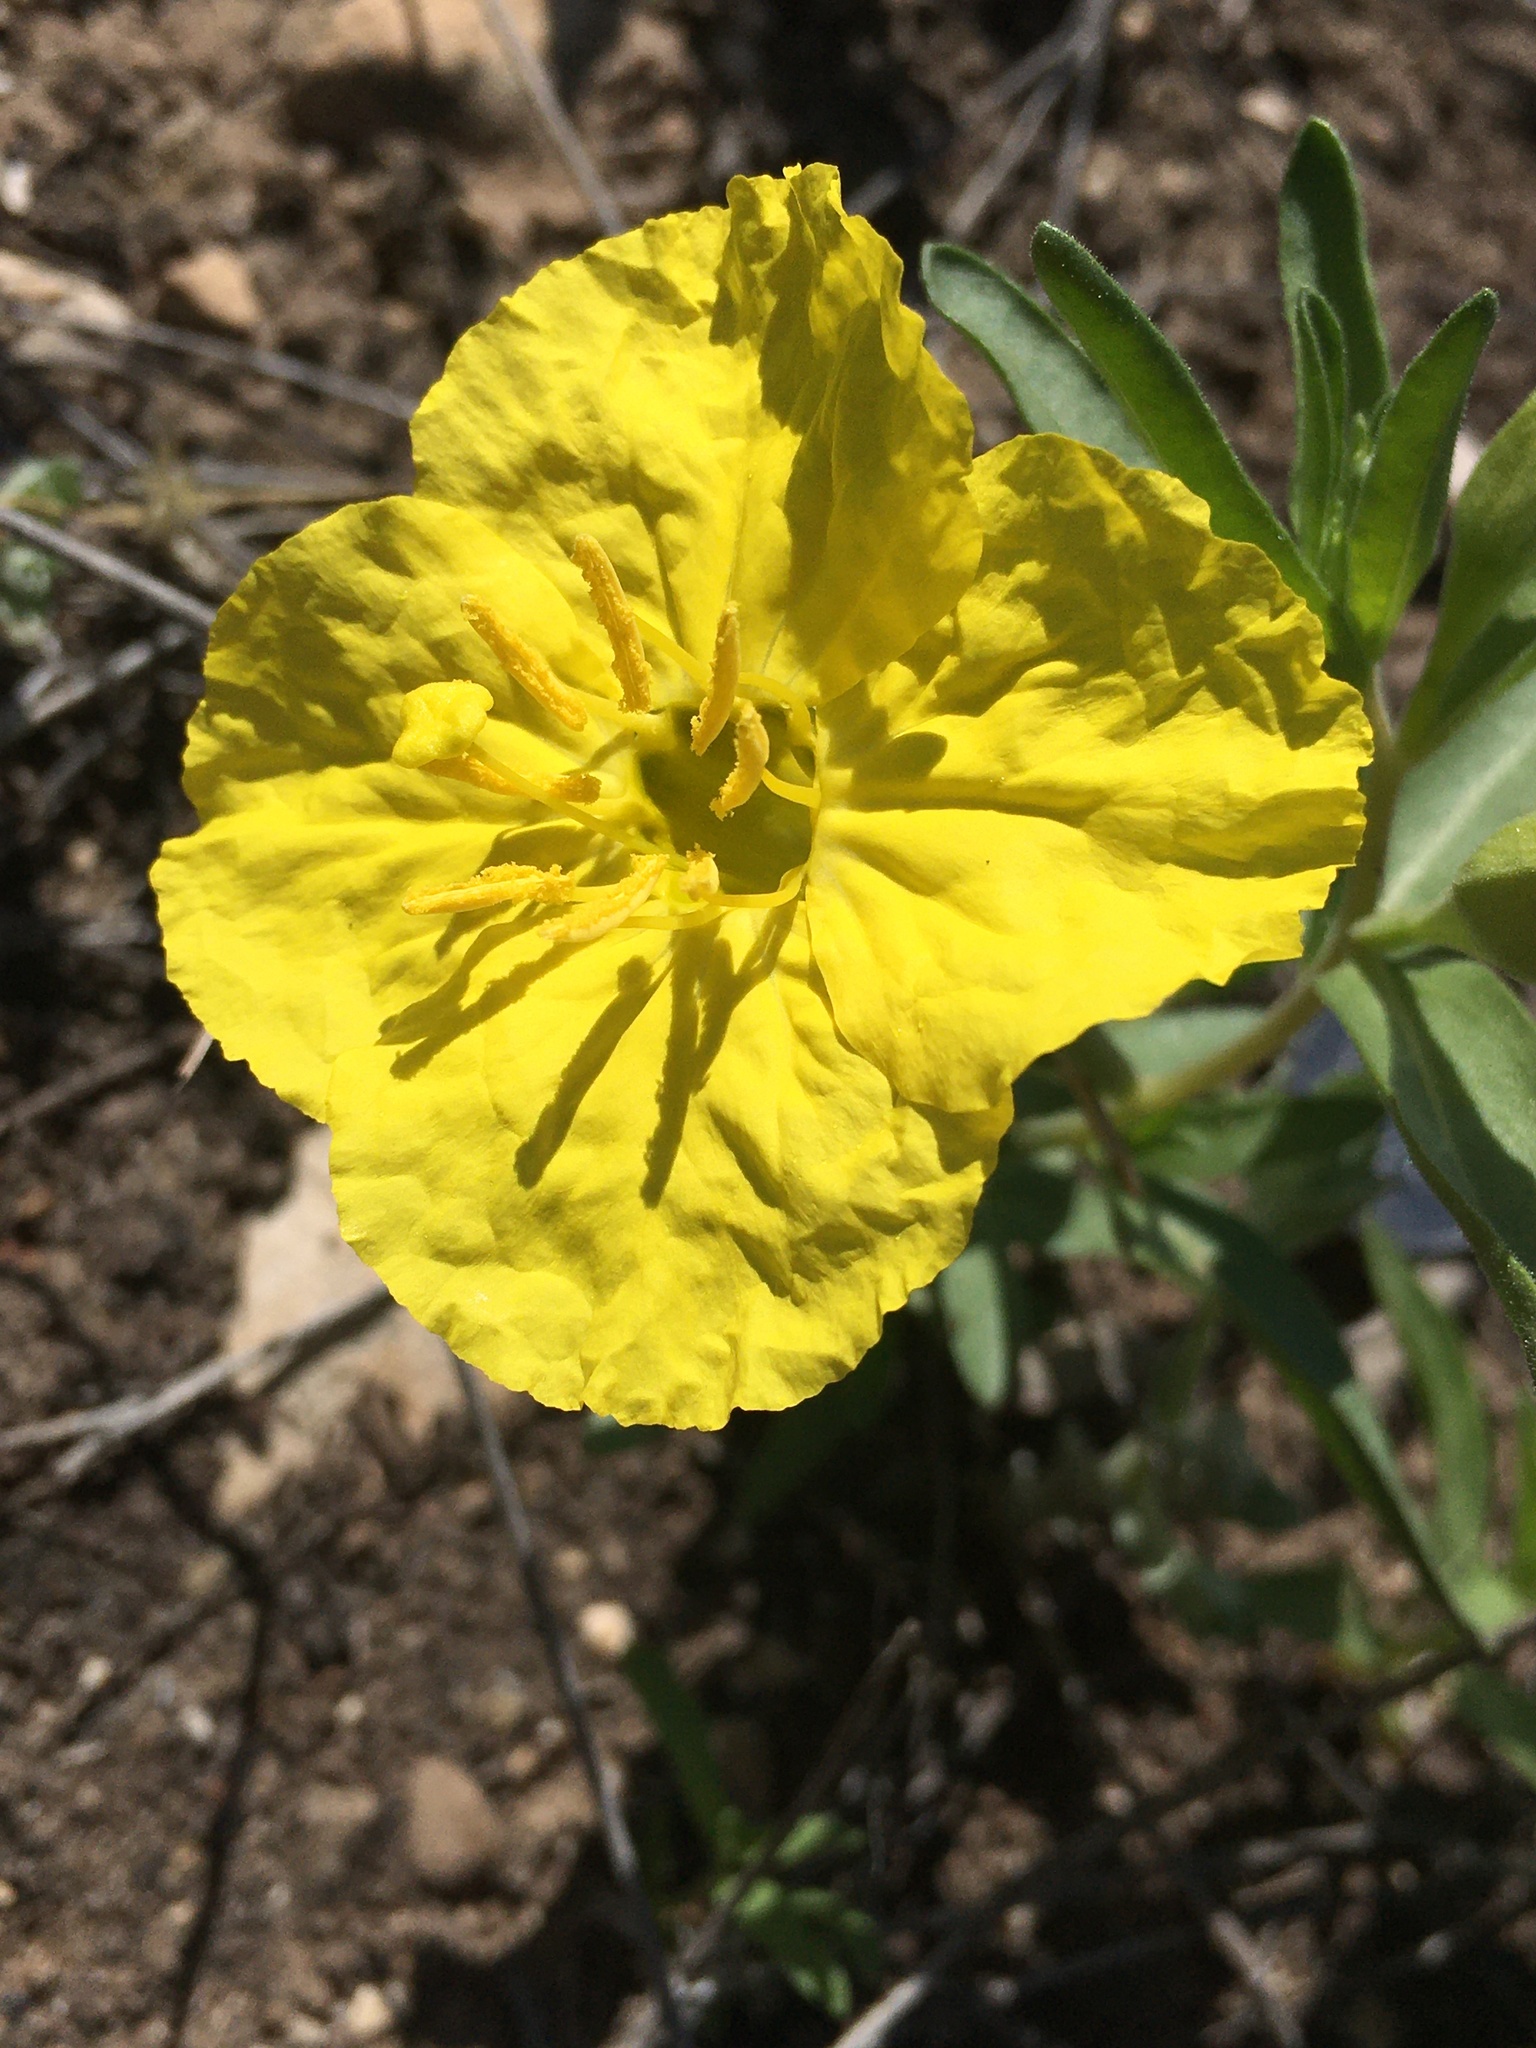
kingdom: Plantae
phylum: Tracheophyta
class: Magnoliopsida
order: Myrtales
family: Onagraceae
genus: Oenothera
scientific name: Oenothera tubicula
